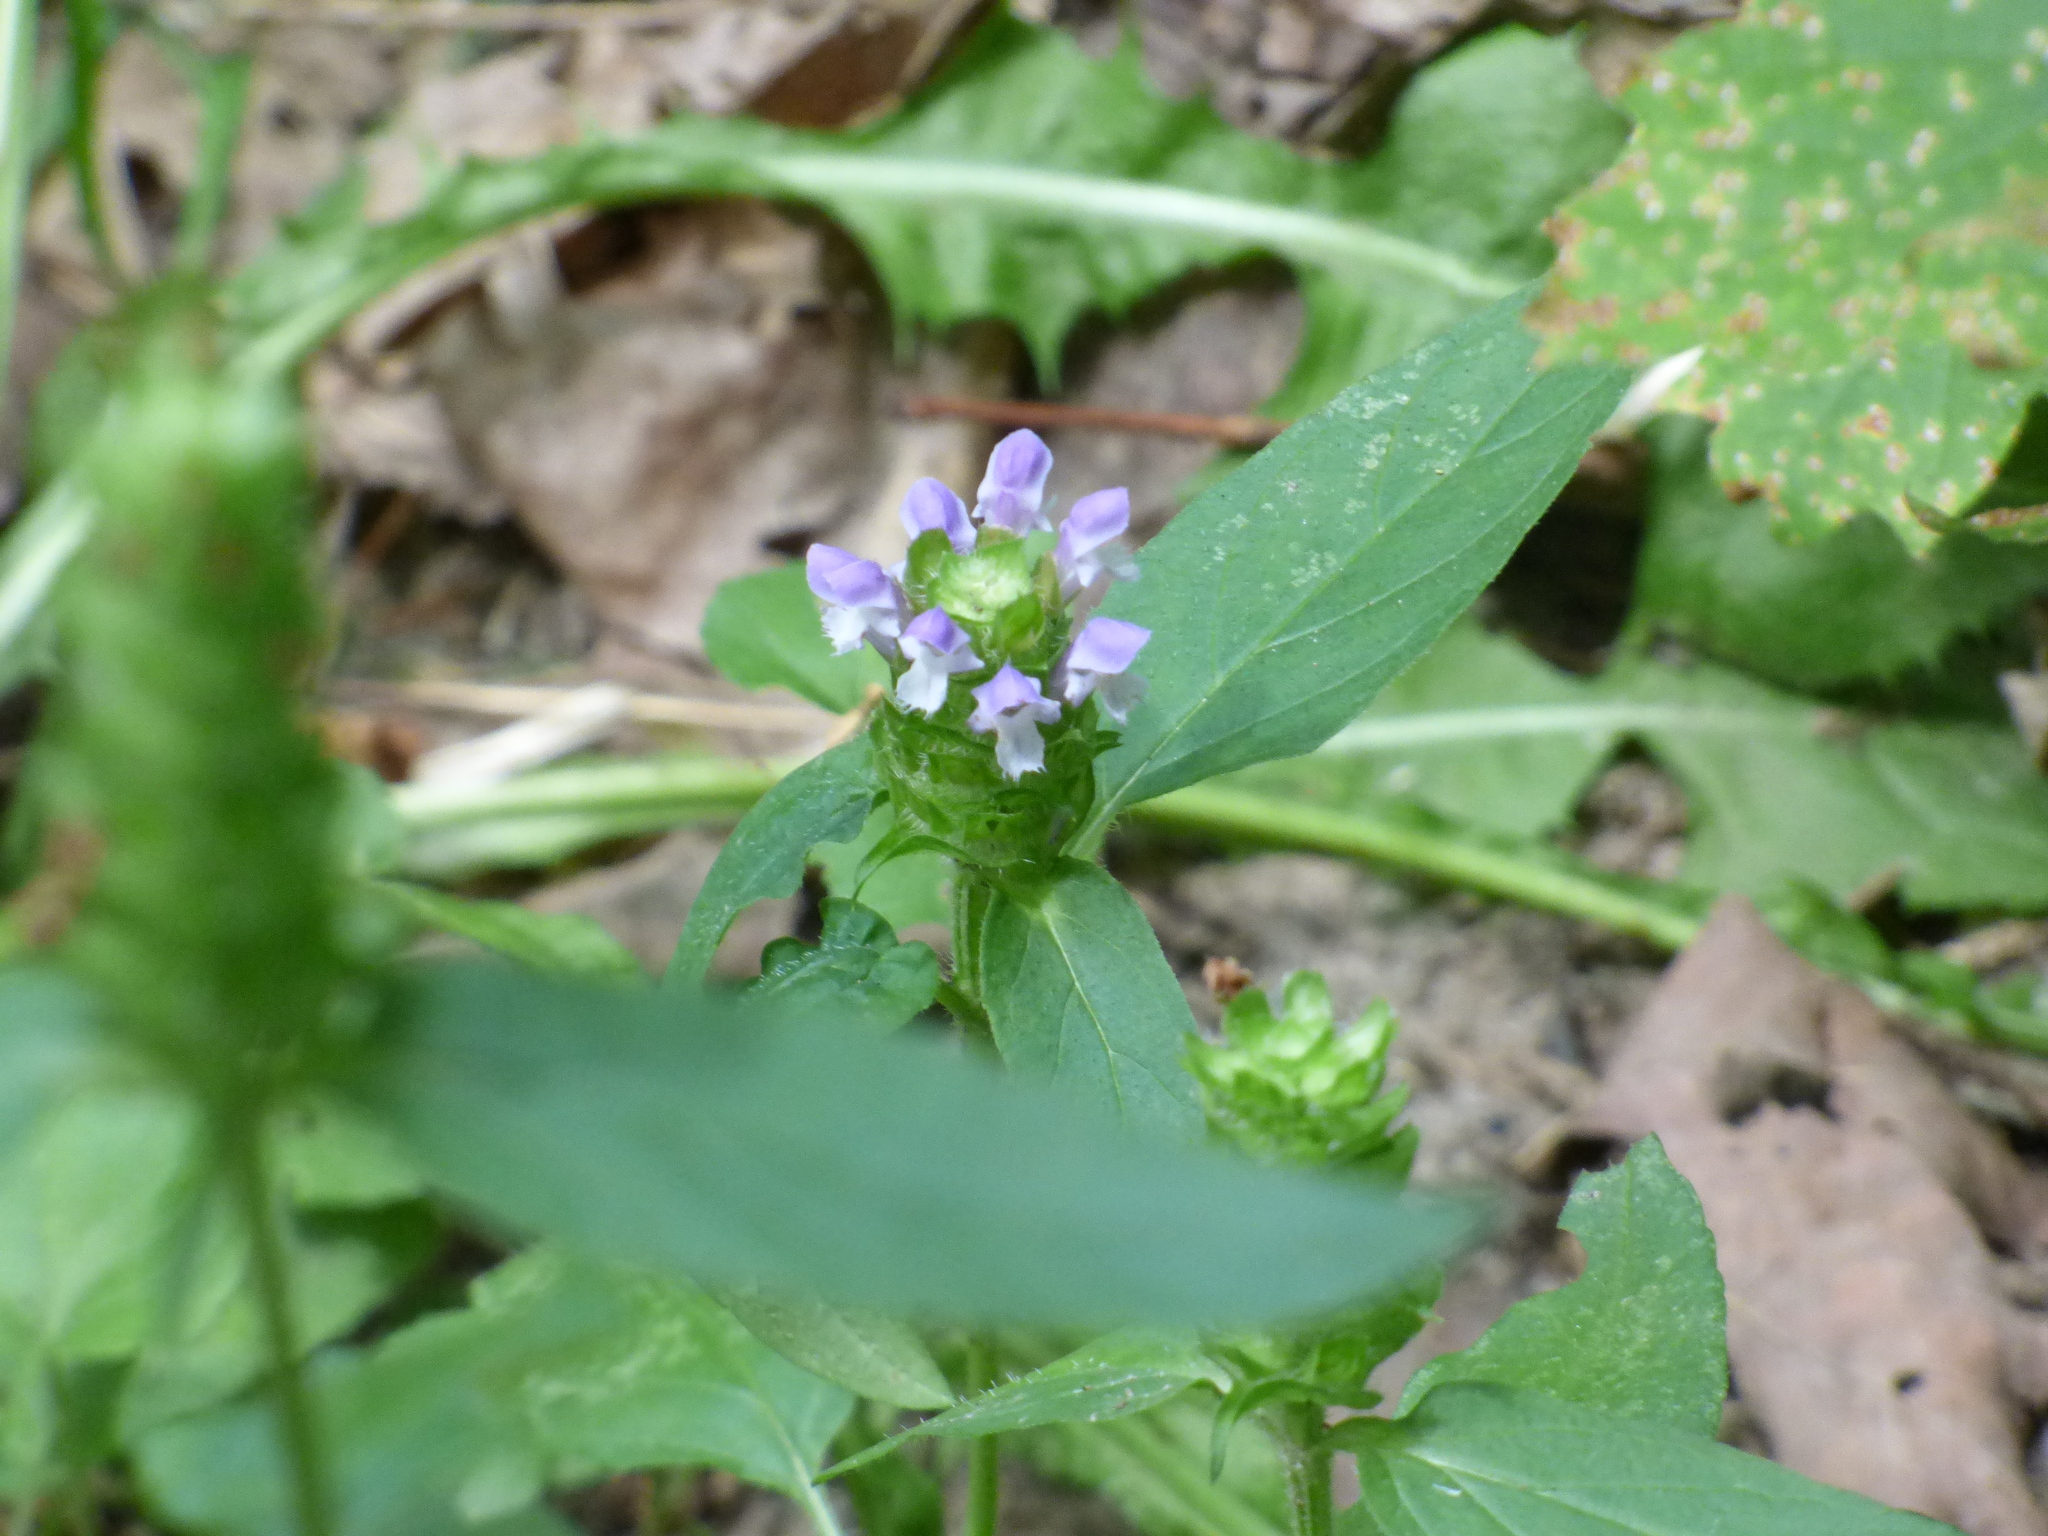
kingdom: Plantae
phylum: Tracheophyta
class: Magnoliopsida
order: Lamiales
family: Lamiaceae
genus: Prunella
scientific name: Prunella vulgaris
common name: Heal-all
